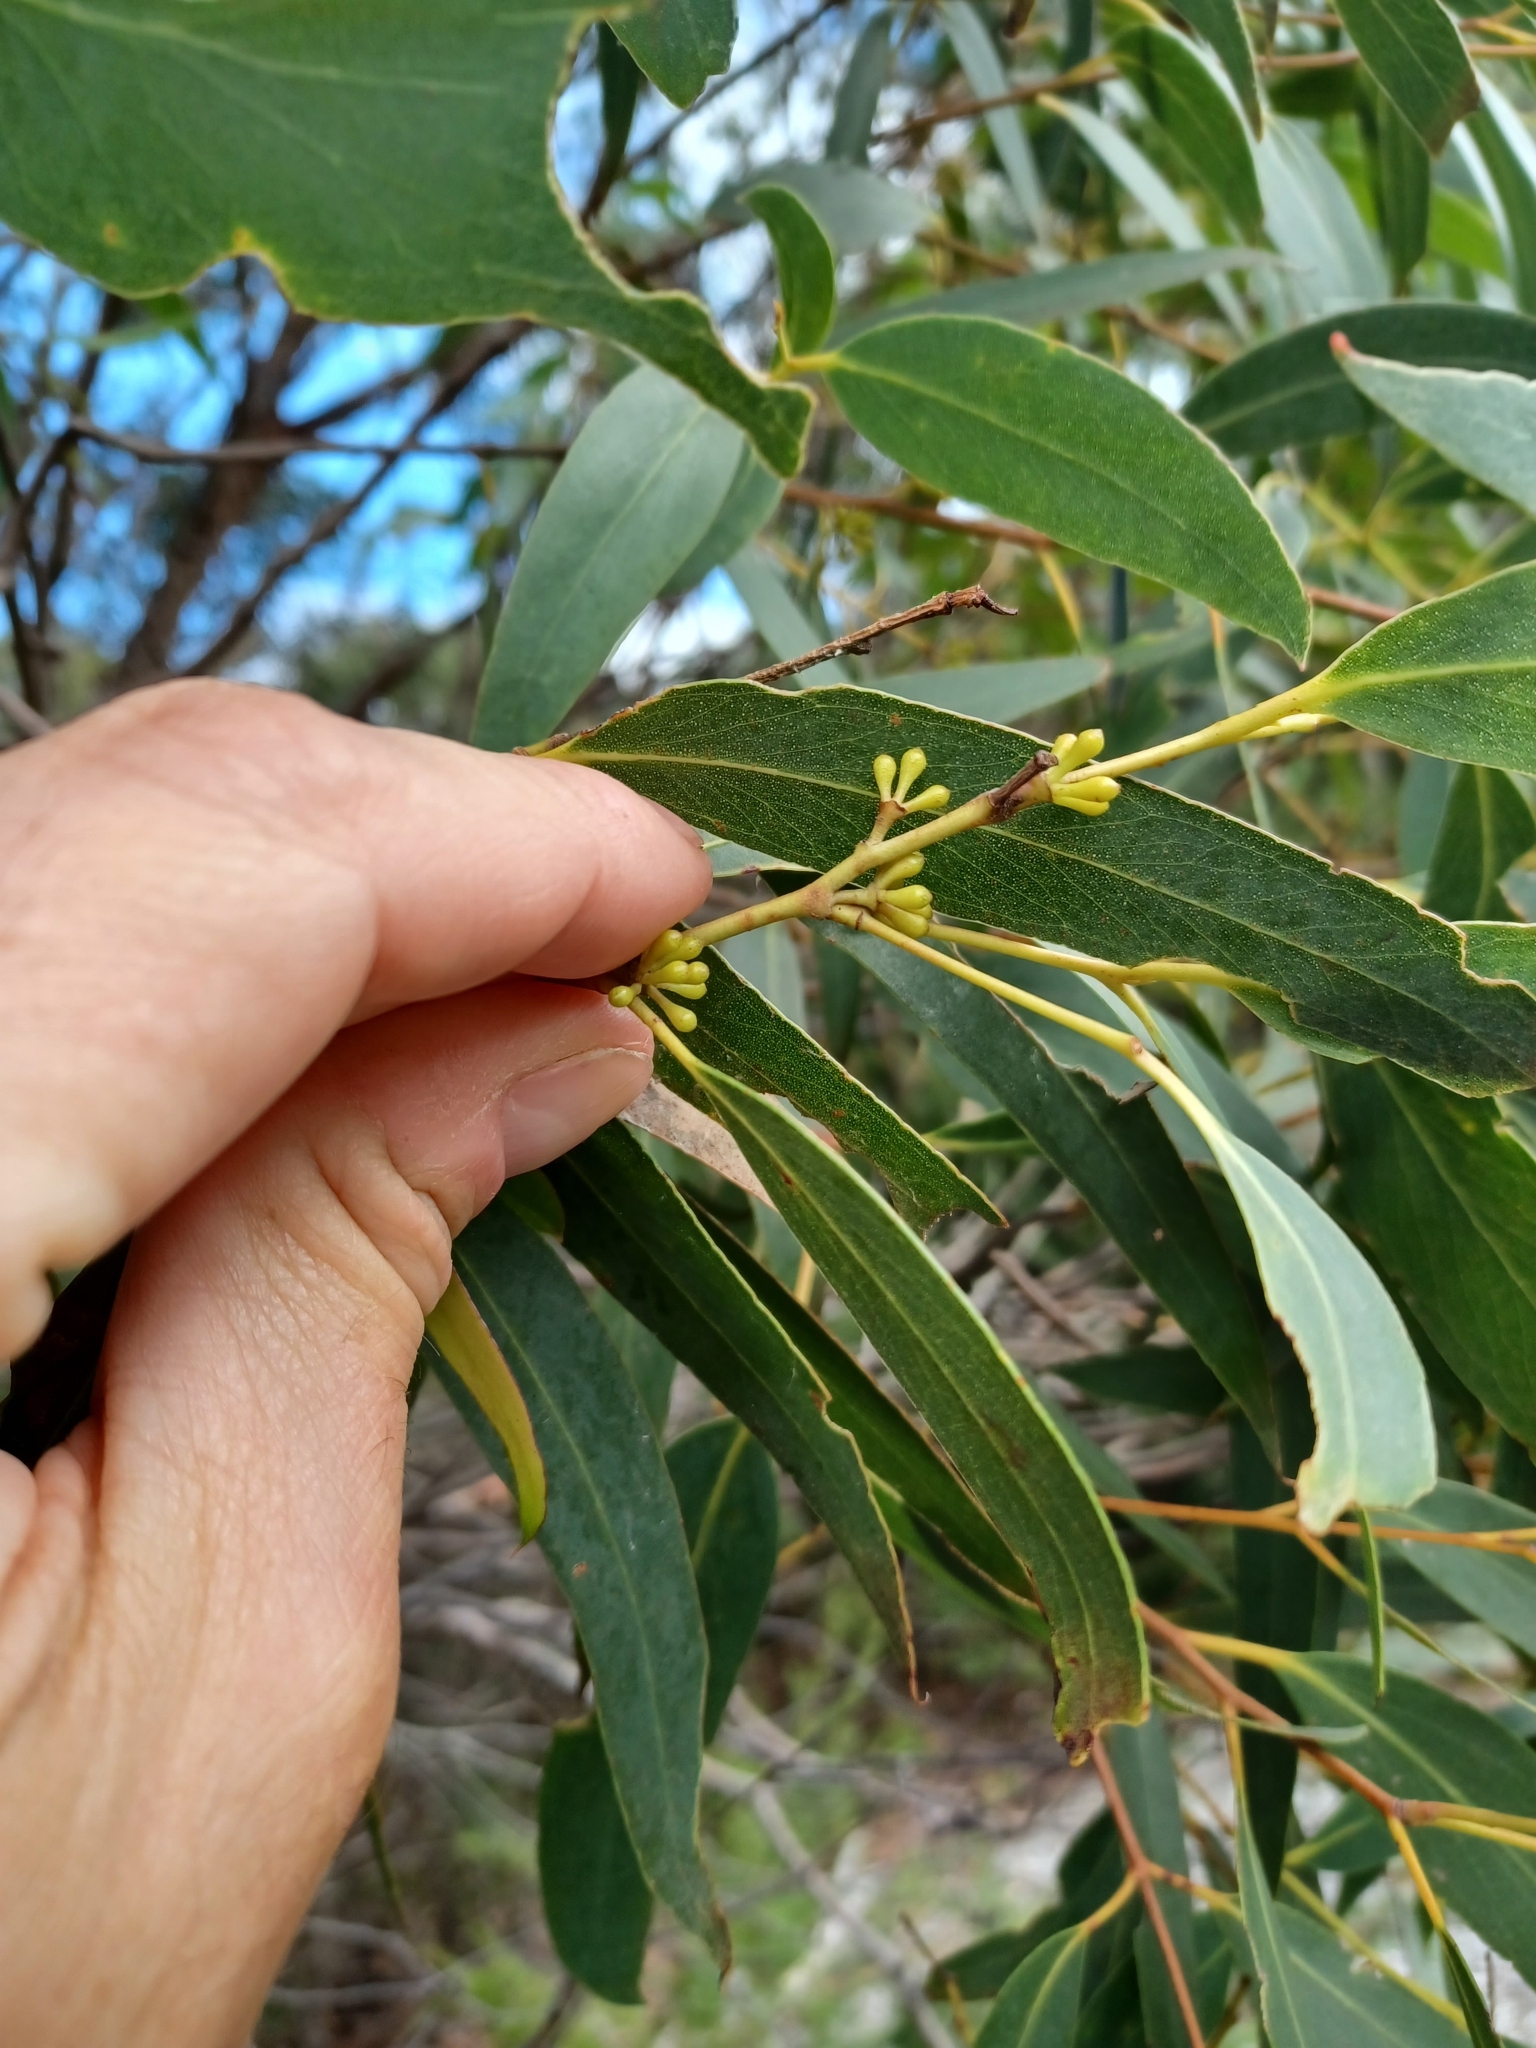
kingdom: Plantae
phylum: Tracheophyta
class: Magnoliopsida
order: Myrtales
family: Myrtaceae
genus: Eucalyptus
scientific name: Eucalyptus willisii
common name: South gippsland peppermint
